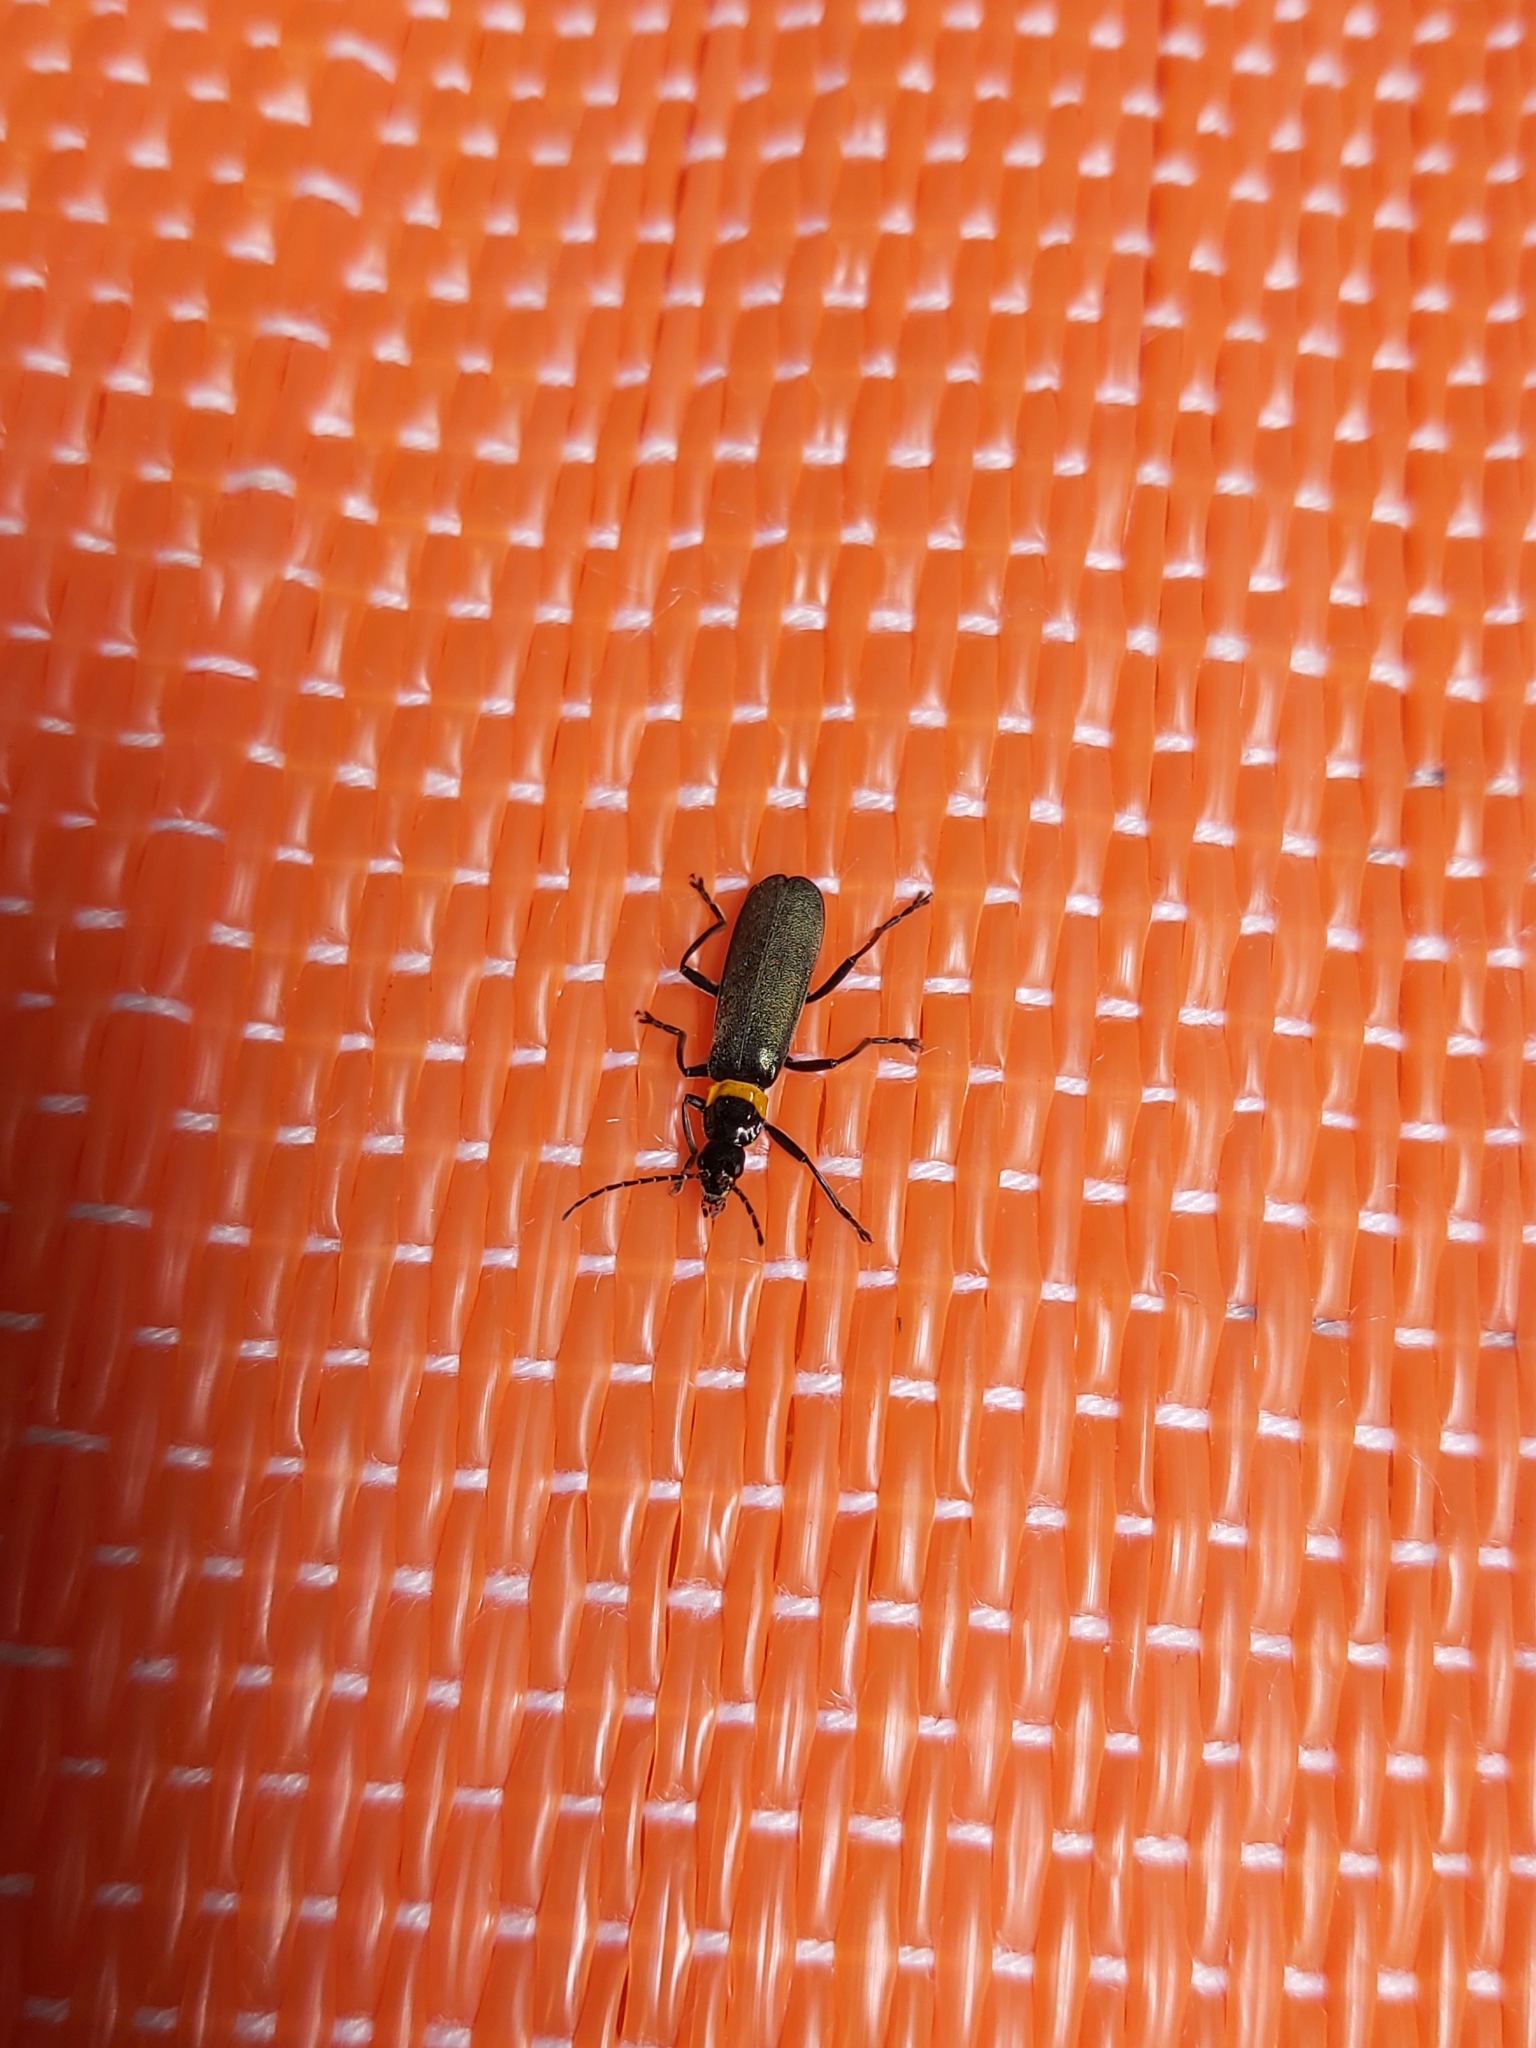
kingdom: Animalia
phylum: Arthropoda
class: Insecta
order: Coleoptera
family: Cantharidae
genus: Chauliognathus
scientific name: Chauliognathus
